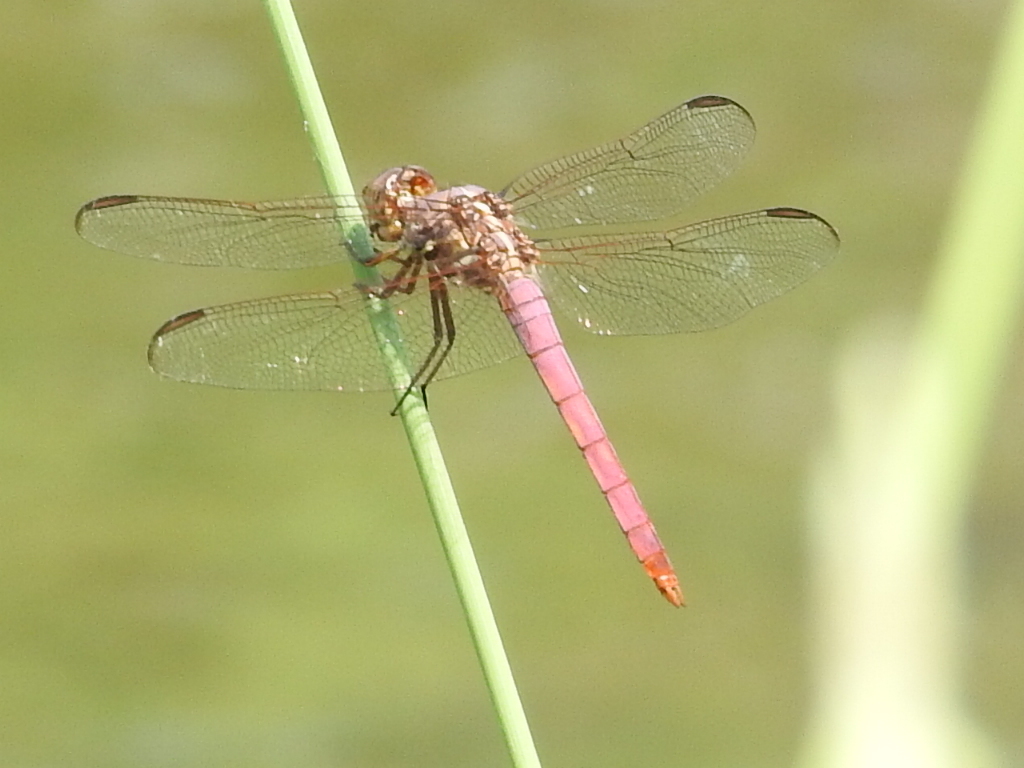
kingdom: Animalia
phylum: Arthropoda
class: Insecta
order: Odonata
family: Libellulidae
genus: Orthemis
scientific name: Orthemis ferruginea
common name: Roseate skimmer
